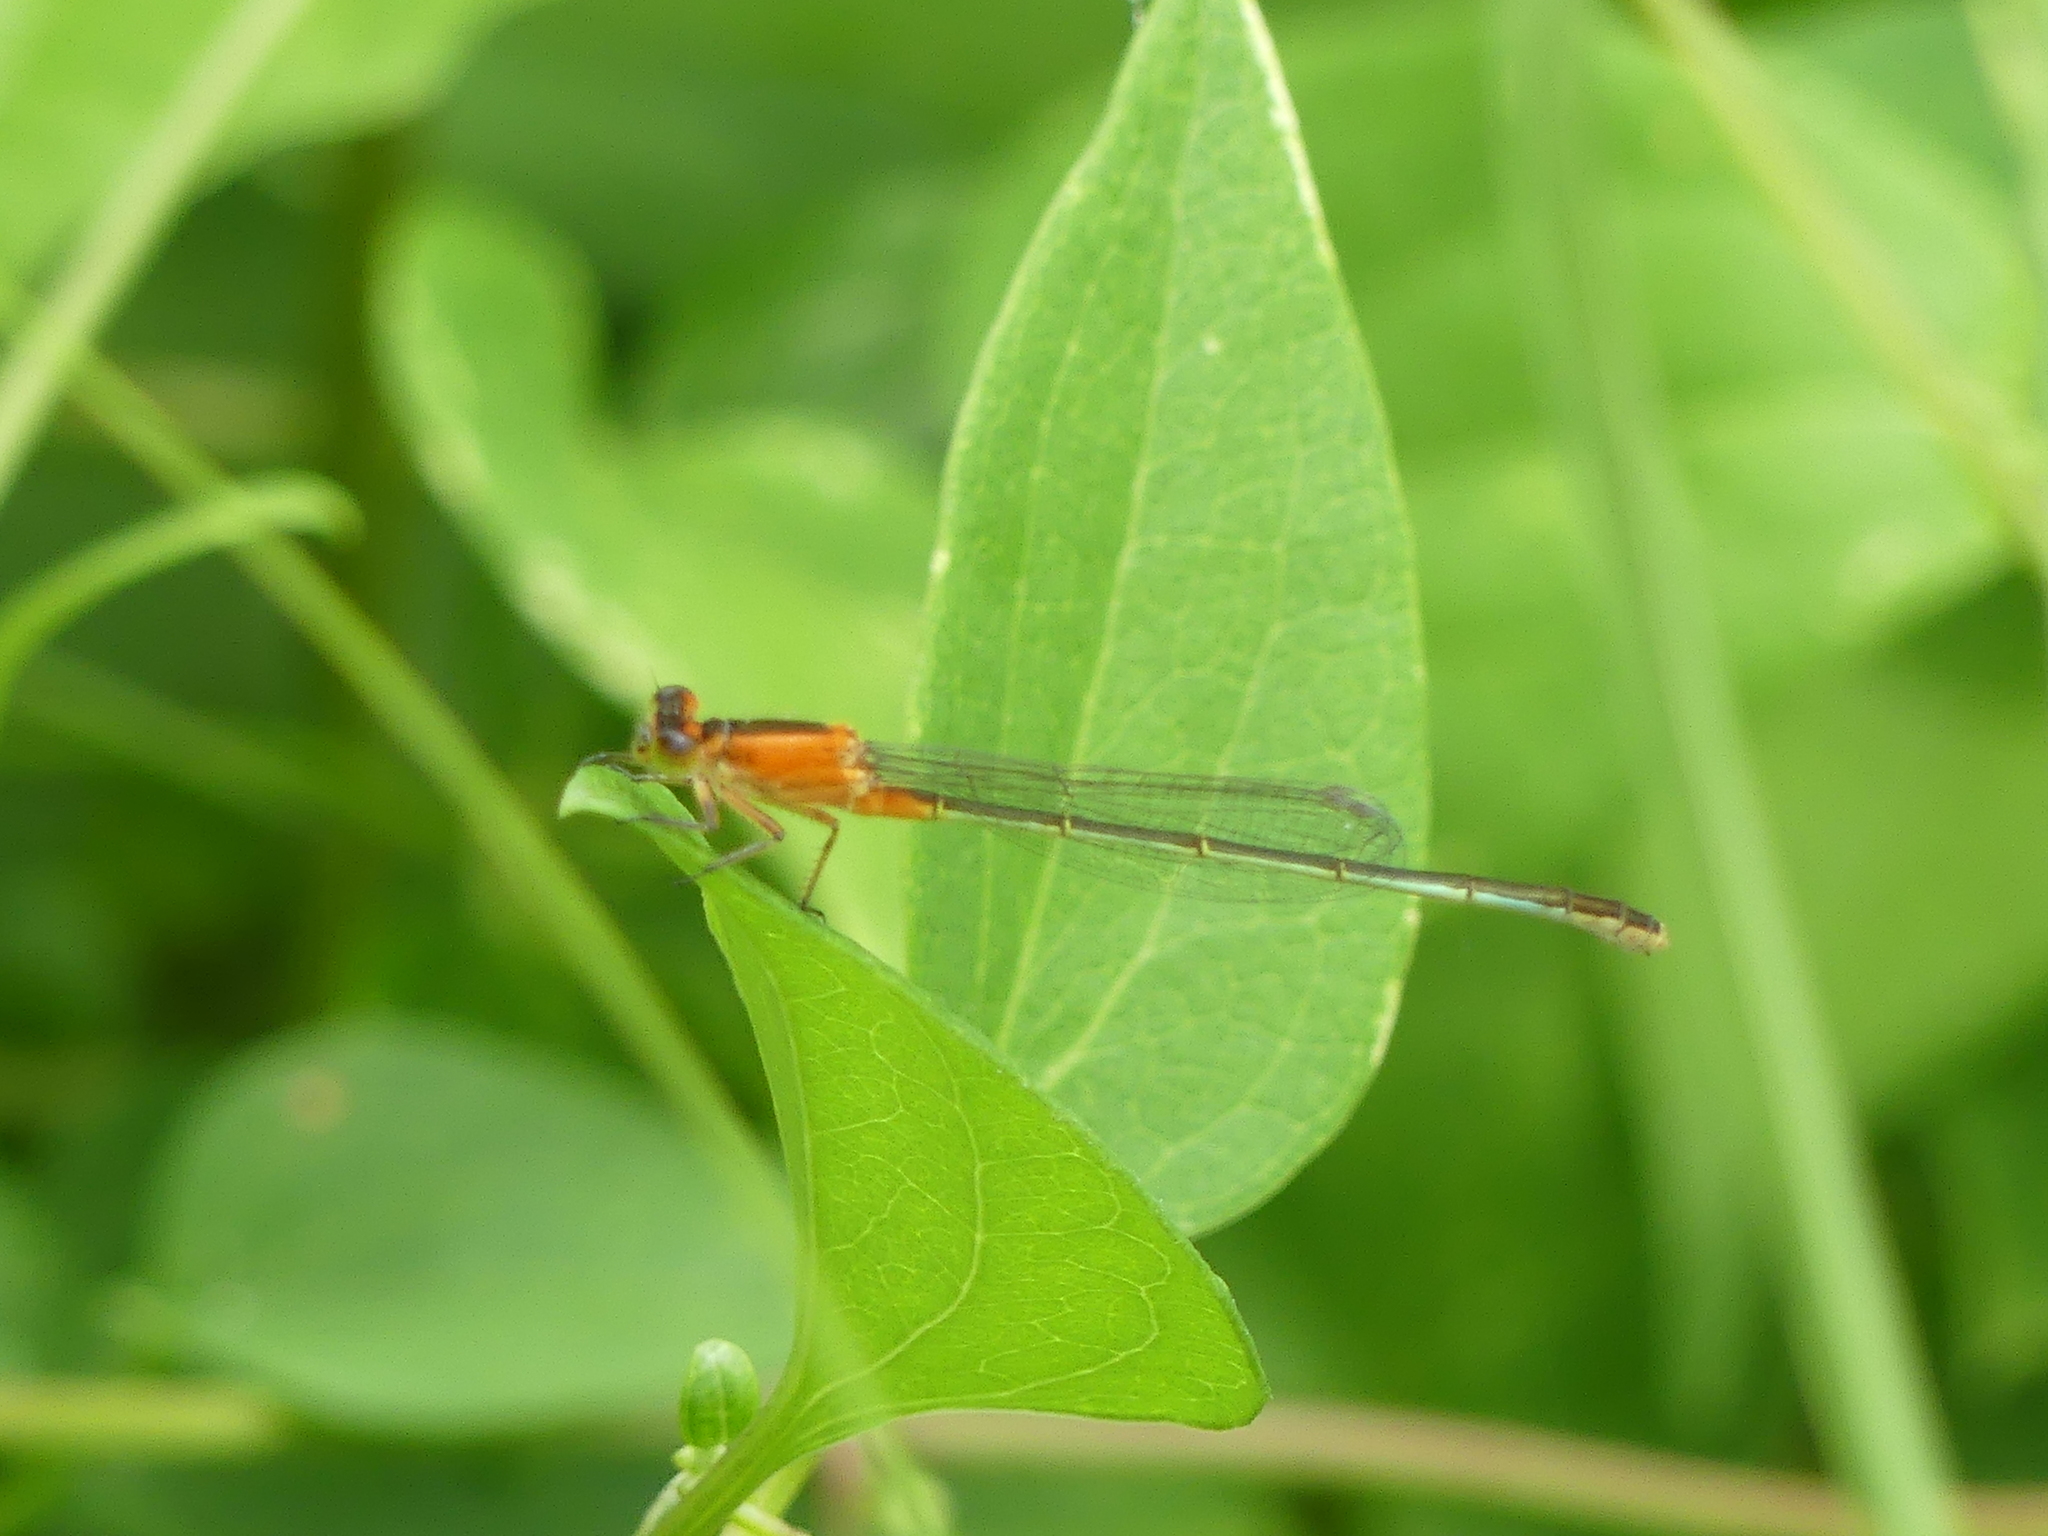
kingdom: Animalia
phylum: Arthropoda
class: Insecta
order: Odonata
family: Coenagrionidae
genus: Ischnura
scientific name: Ischnura ramburii
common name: Rambur's forktail
